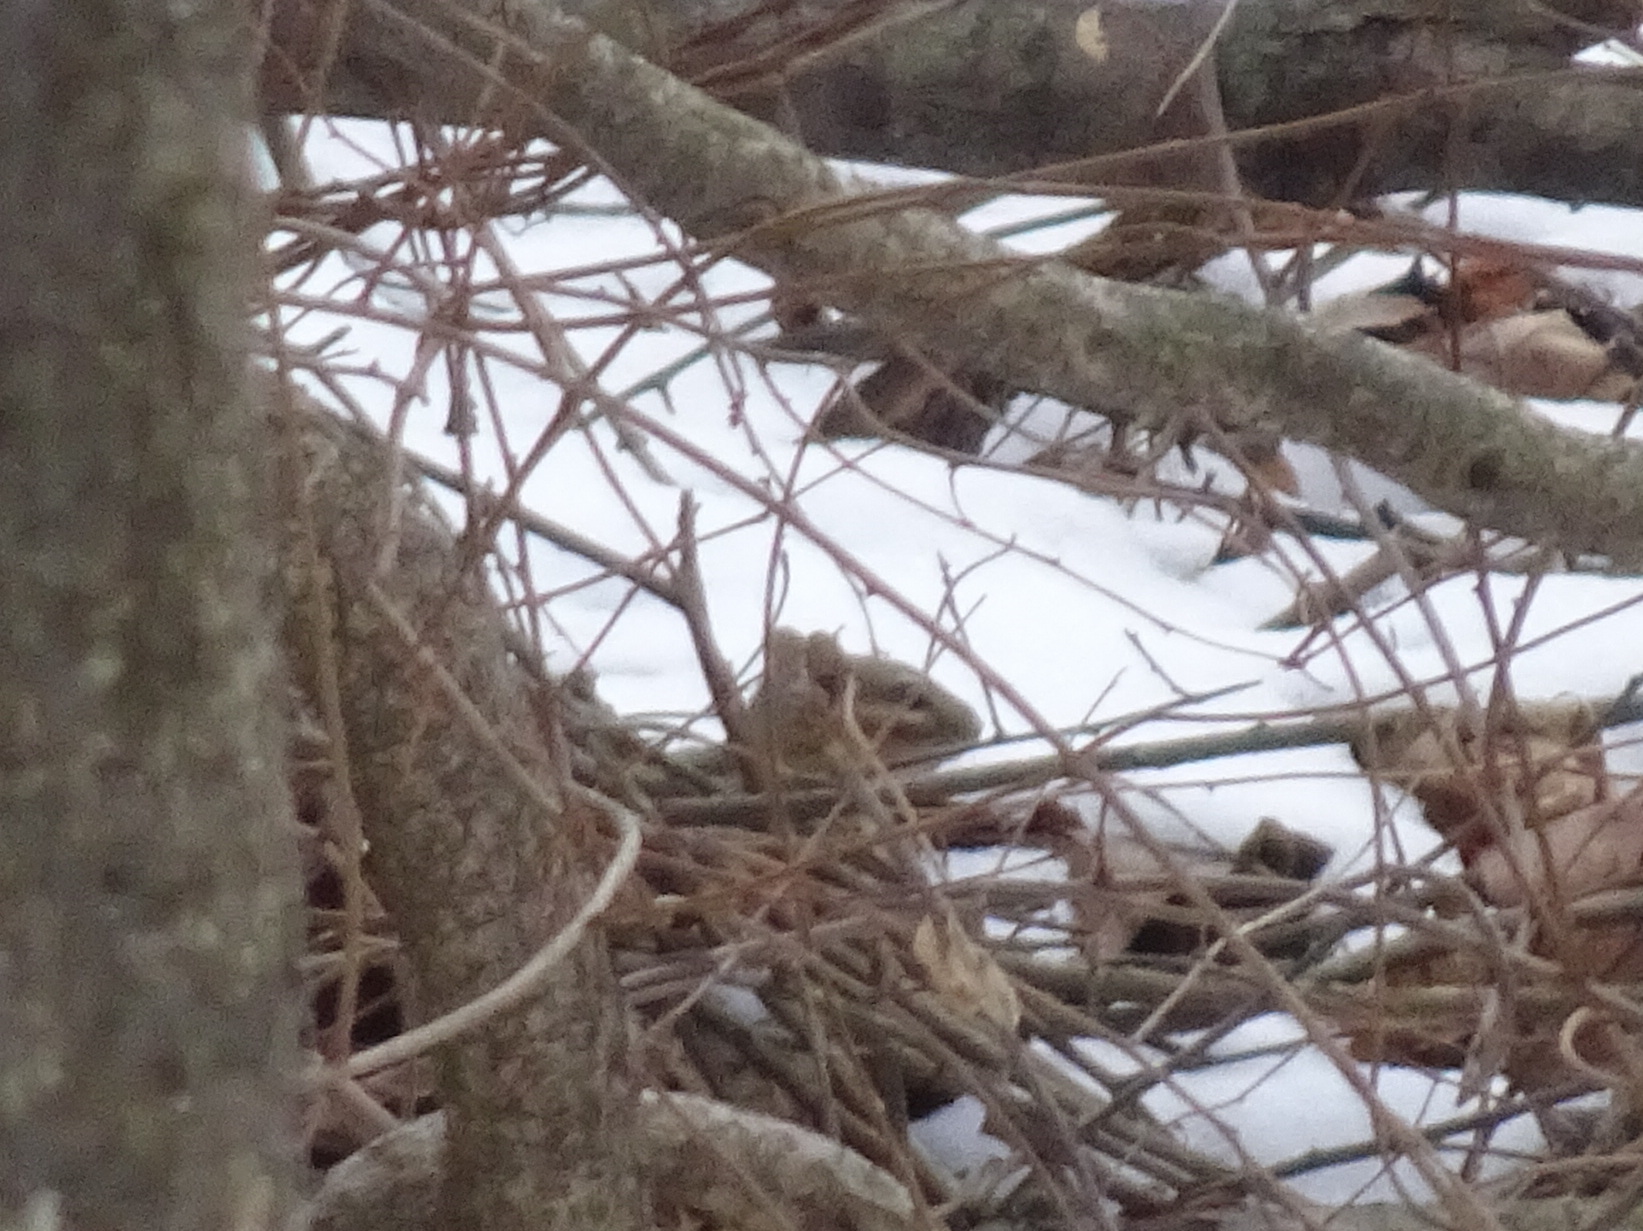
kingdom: Animalia
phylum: Chordata
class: Mammalia
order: Rodentia
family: Sciuridae
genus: Tamias
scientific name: Tamias striatus
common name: Eastern chipmunk
